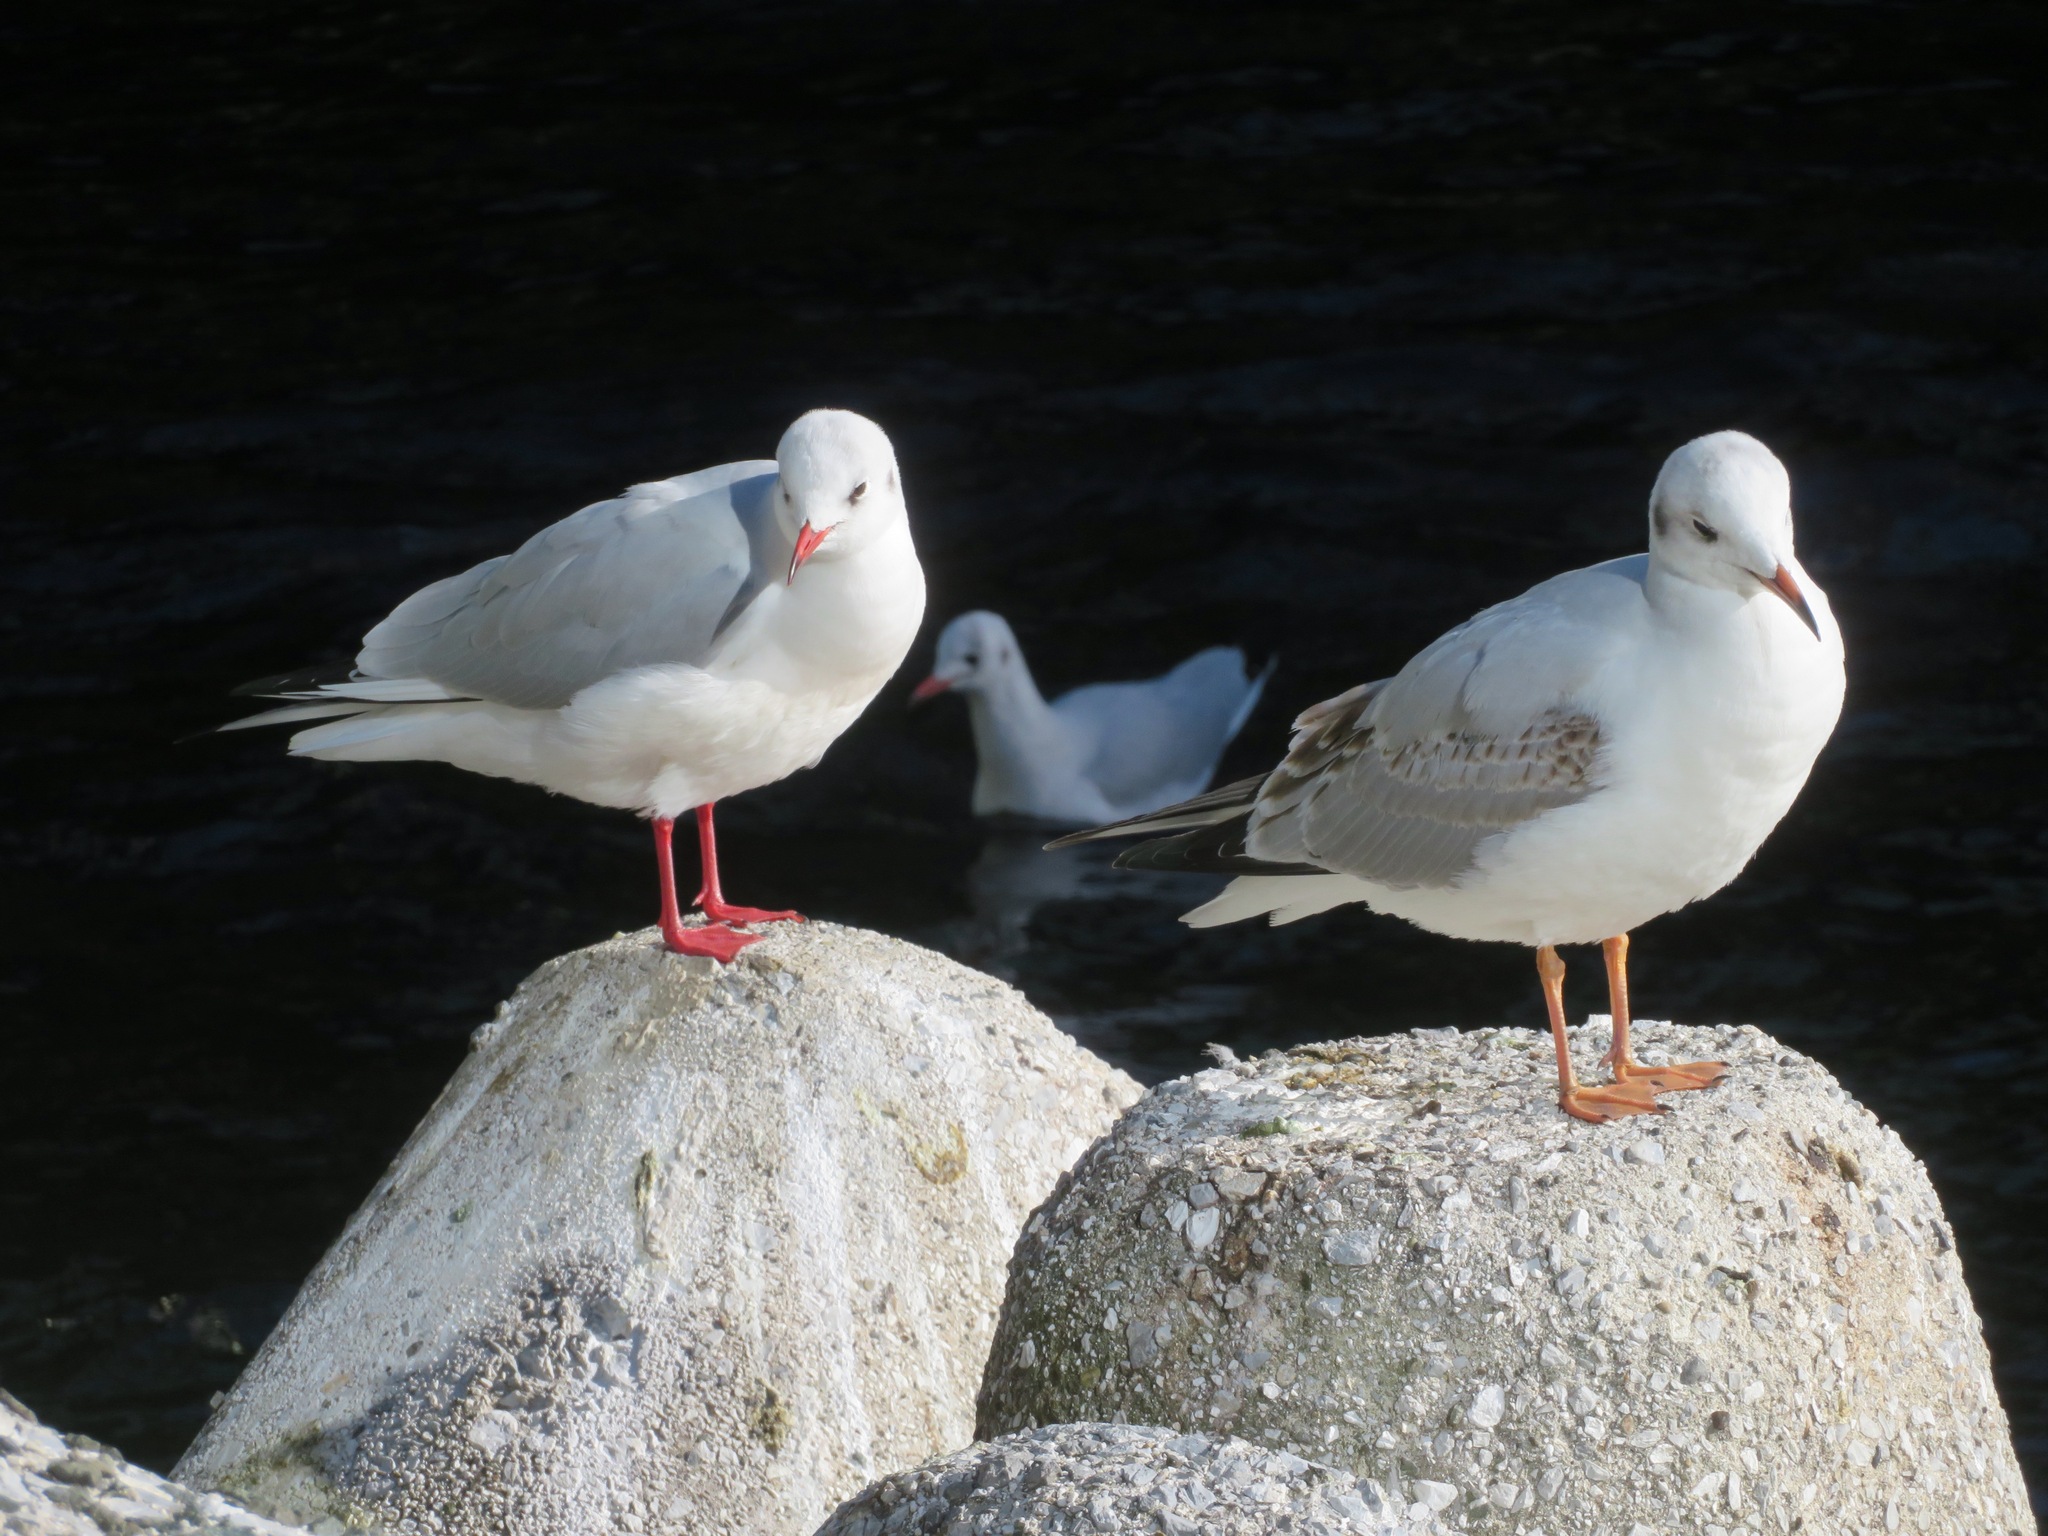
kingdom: Animalia
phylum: Chordata
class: Aves
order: Charadriiformes
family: Laridae
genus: Chroicocephalus
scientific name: Chroicocephalus ridibundus
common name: Black-headed gull
